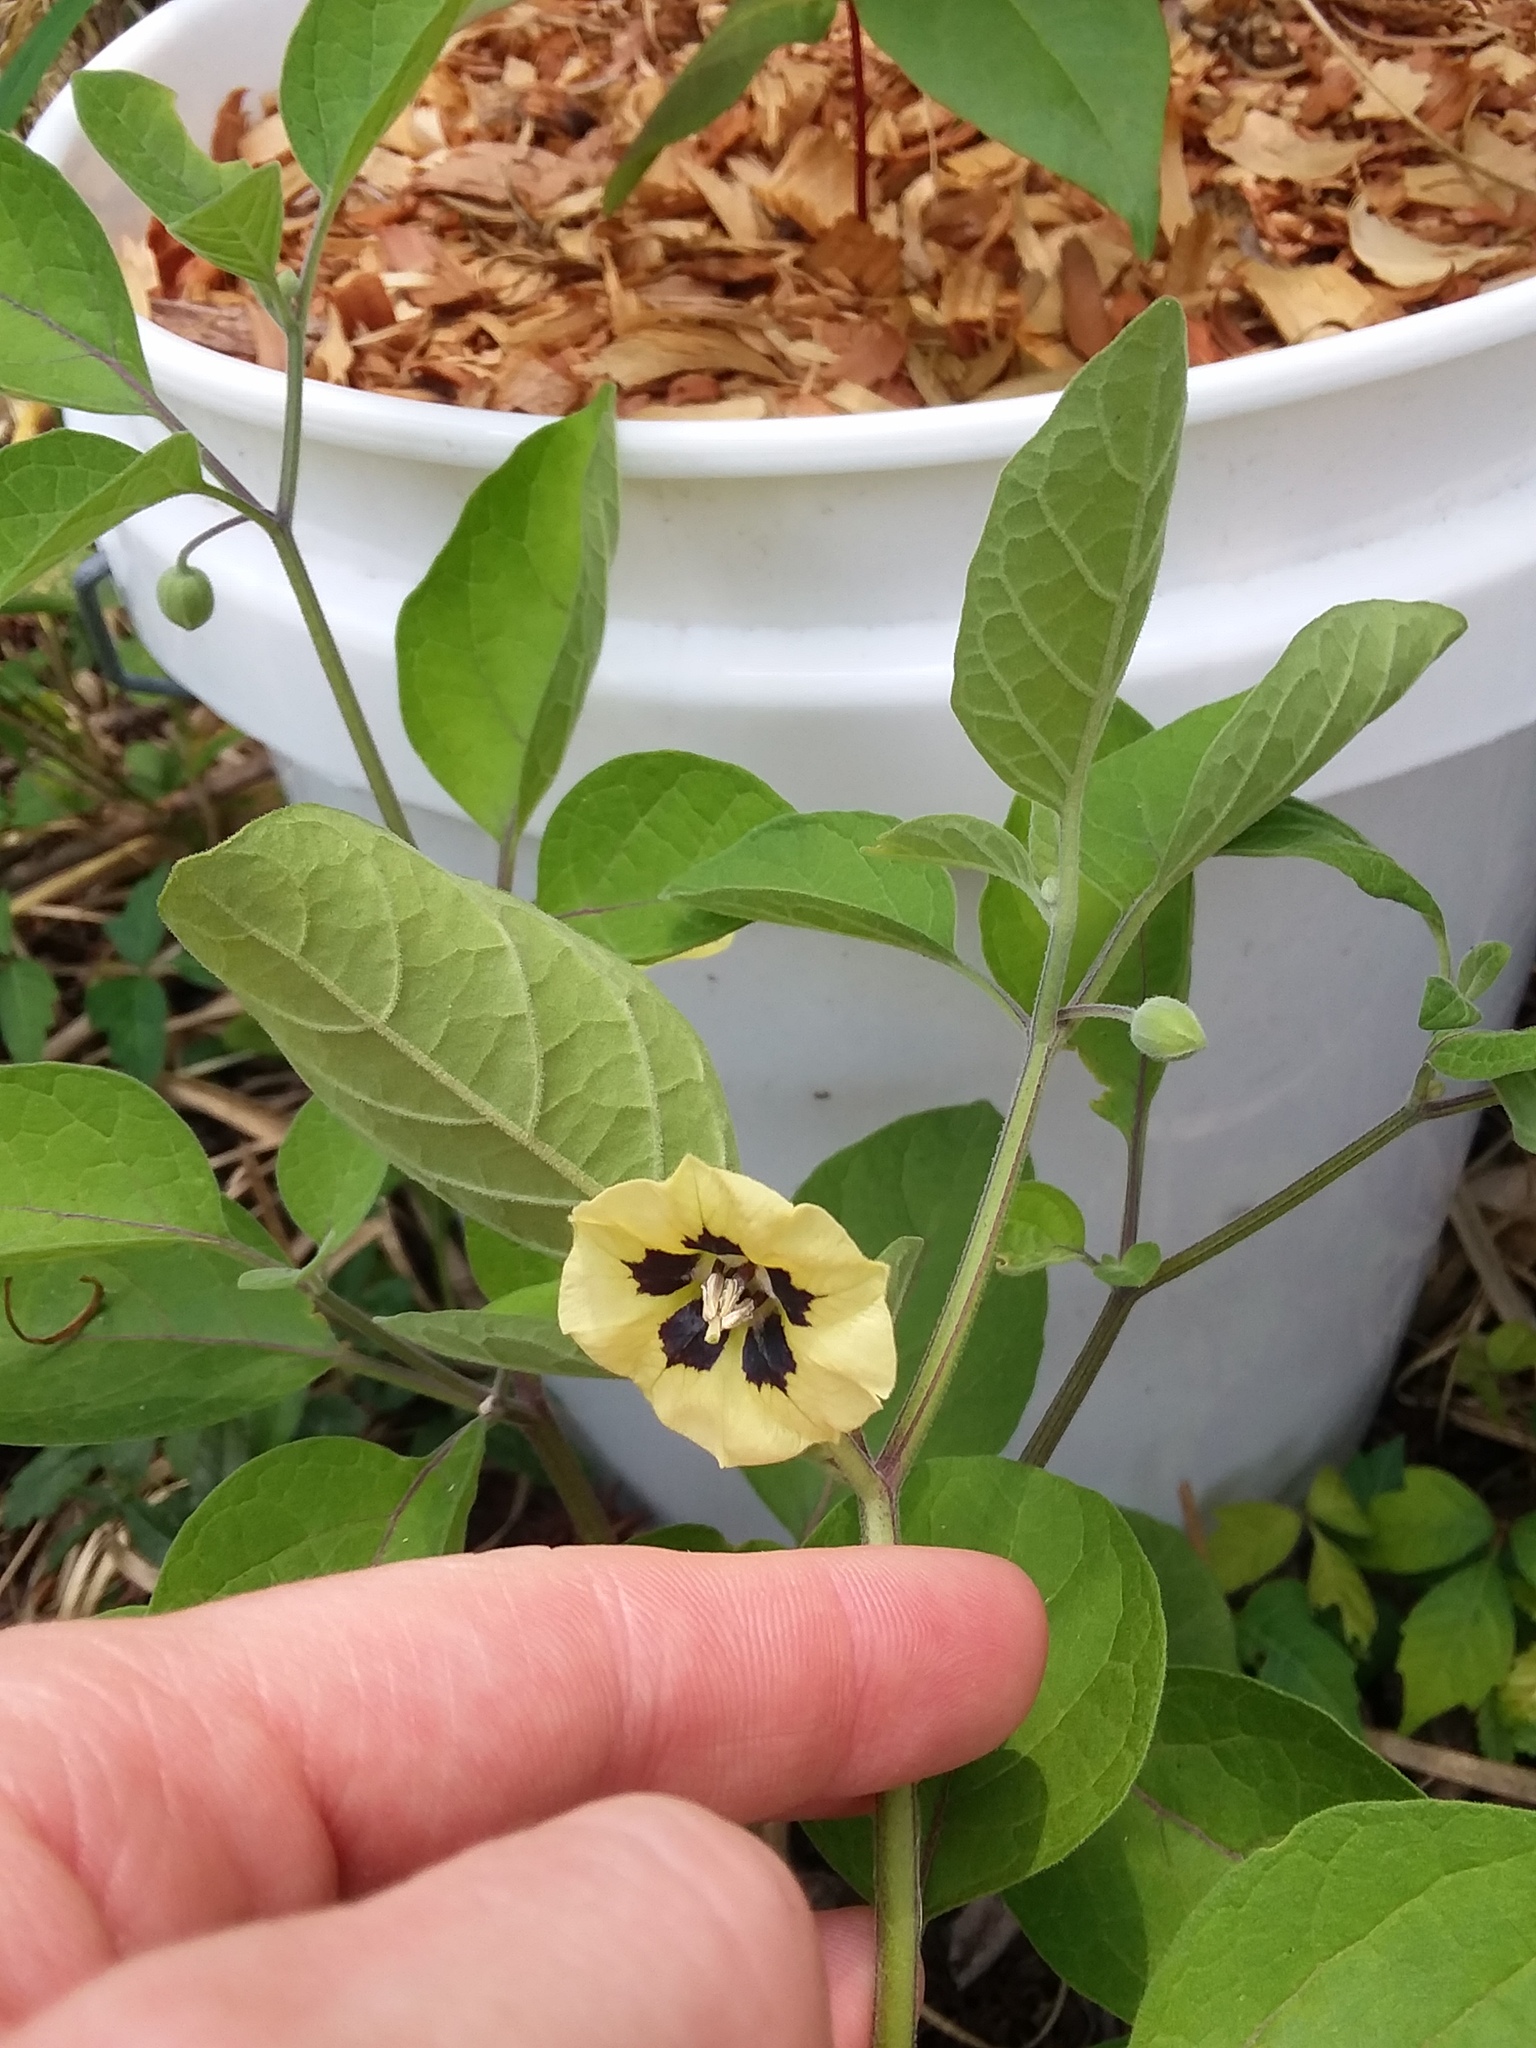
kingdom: Plantae
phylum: Tracheophyta
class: Magnoliopsida
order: Solanales
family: Solanaceae
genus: Physalis
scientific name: Physalis walteri
